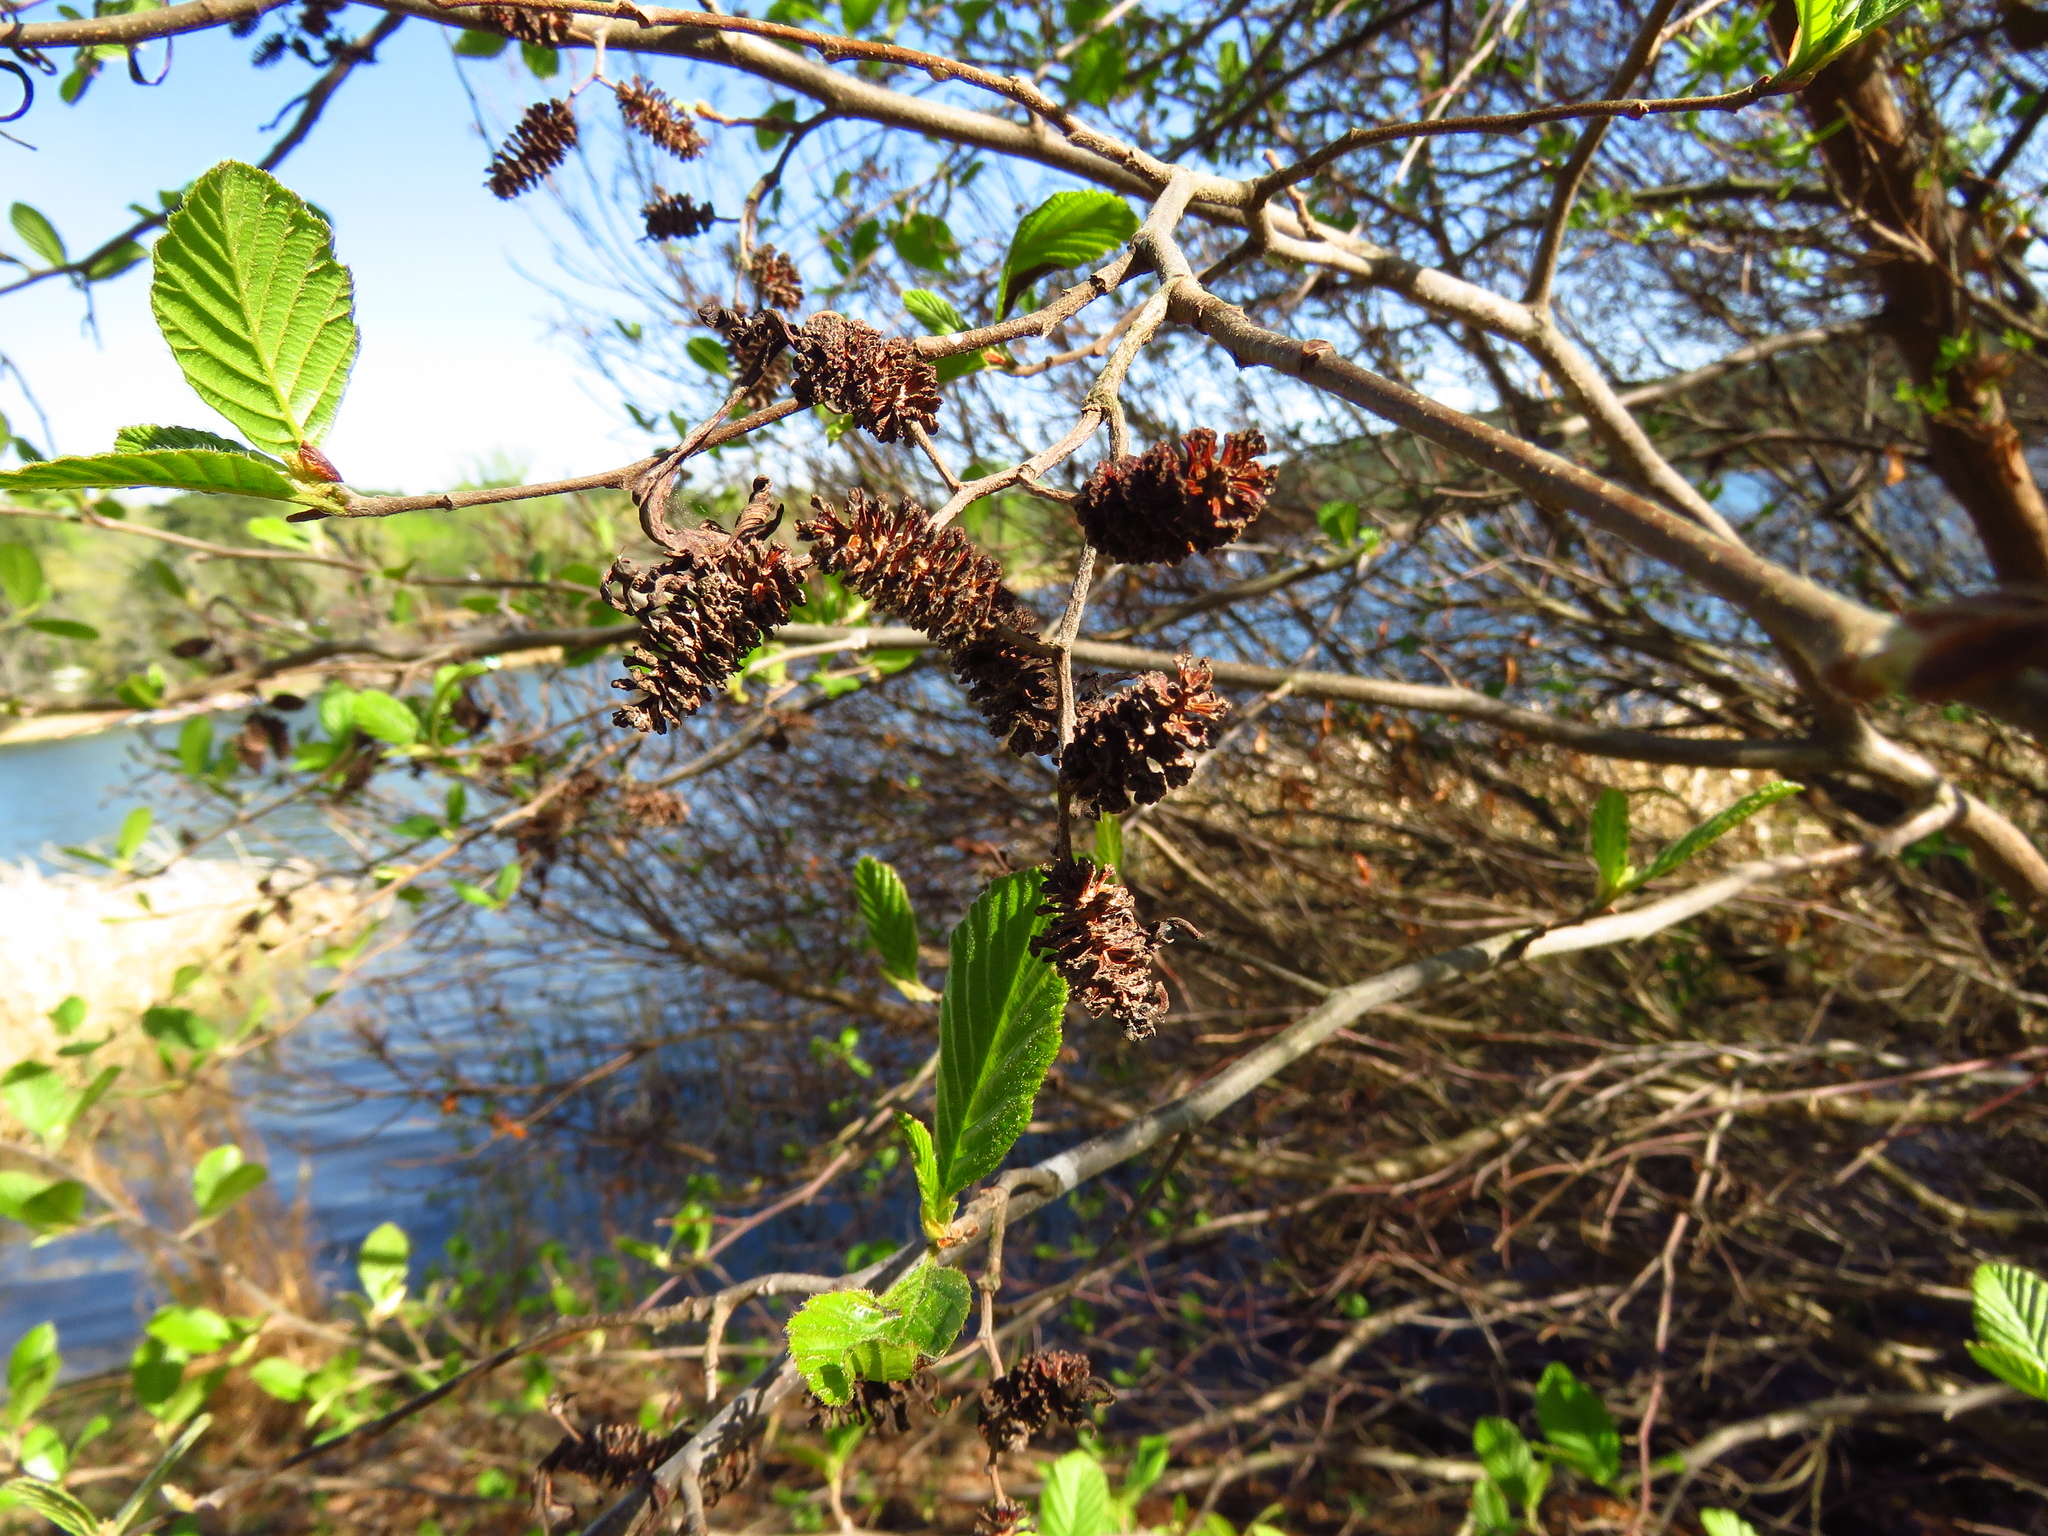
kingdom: Plantae
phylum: Tracheophyta
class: Magnoliopsida
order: Fagales
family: Betulaceae
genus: Alnus
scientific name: Alnus serrulata
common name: Hazel alder
